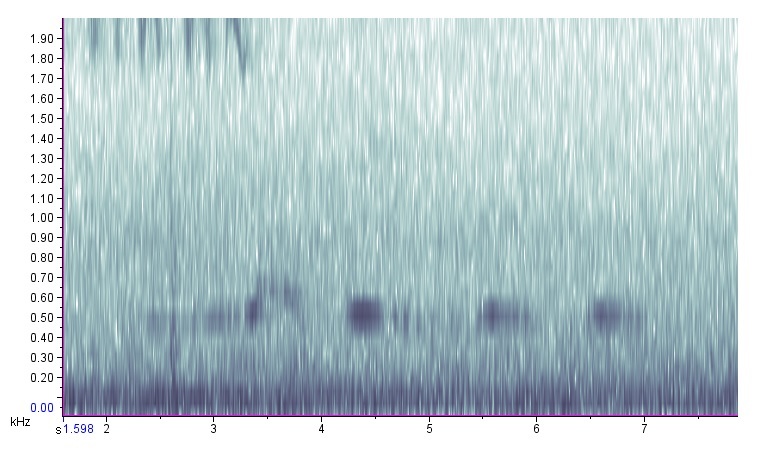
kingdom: Animalia
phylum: Chordata
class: Aves
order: Columbiformes
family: Columbidae
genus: Zenaida
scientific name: Zenaida macroura
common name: Mourning dove
